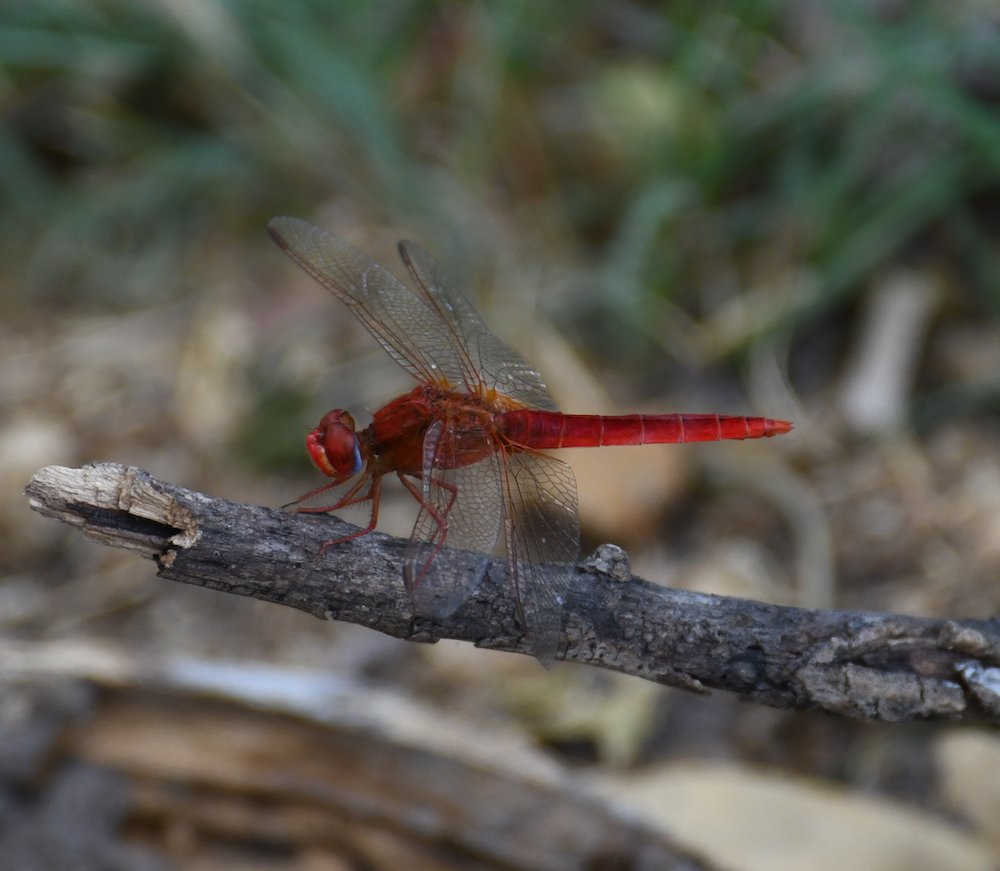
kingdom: Animalia
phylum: Arthropoda
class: Insecta
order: Odonata
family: Libellulidae
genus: Crocothemis
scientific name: Crocothemis erythraea
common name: Scarlet dragonfly
